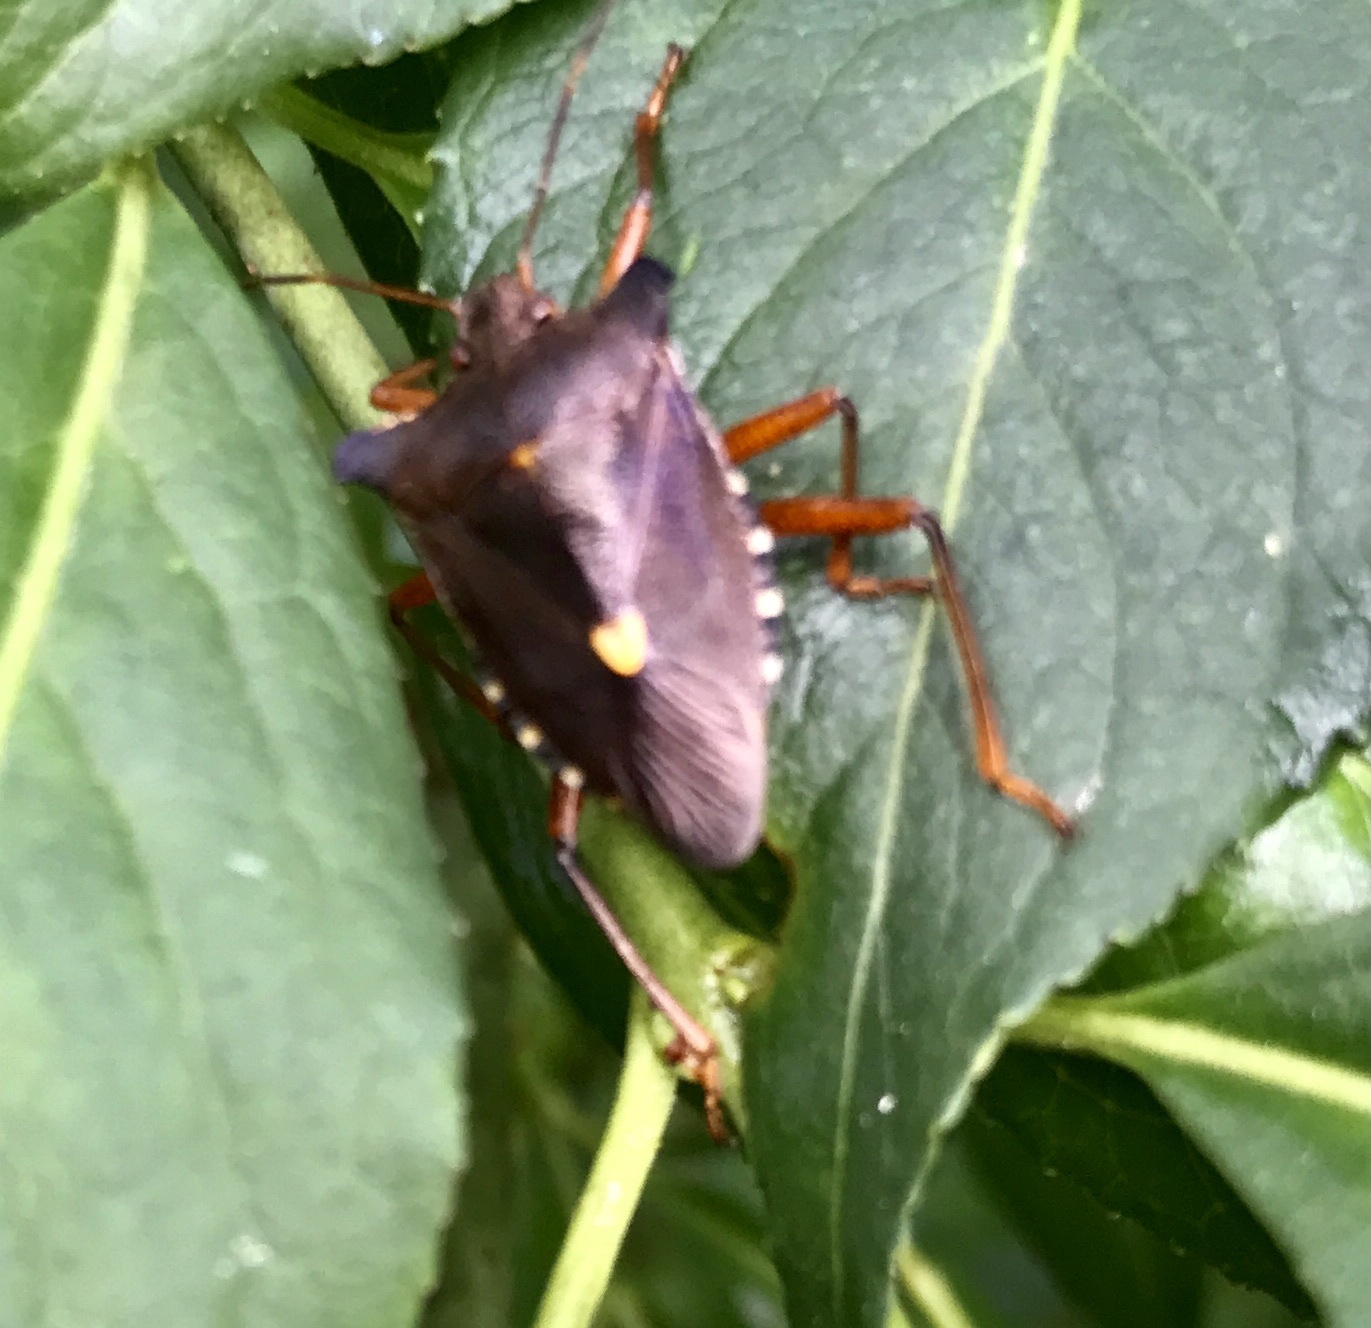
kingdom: Animalia
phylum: Arthropoda
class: Insecta
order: Hemiptera
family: Pentatomidae
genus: Pentatoma
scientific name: Pentatoma rufipes
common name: Forest bug
